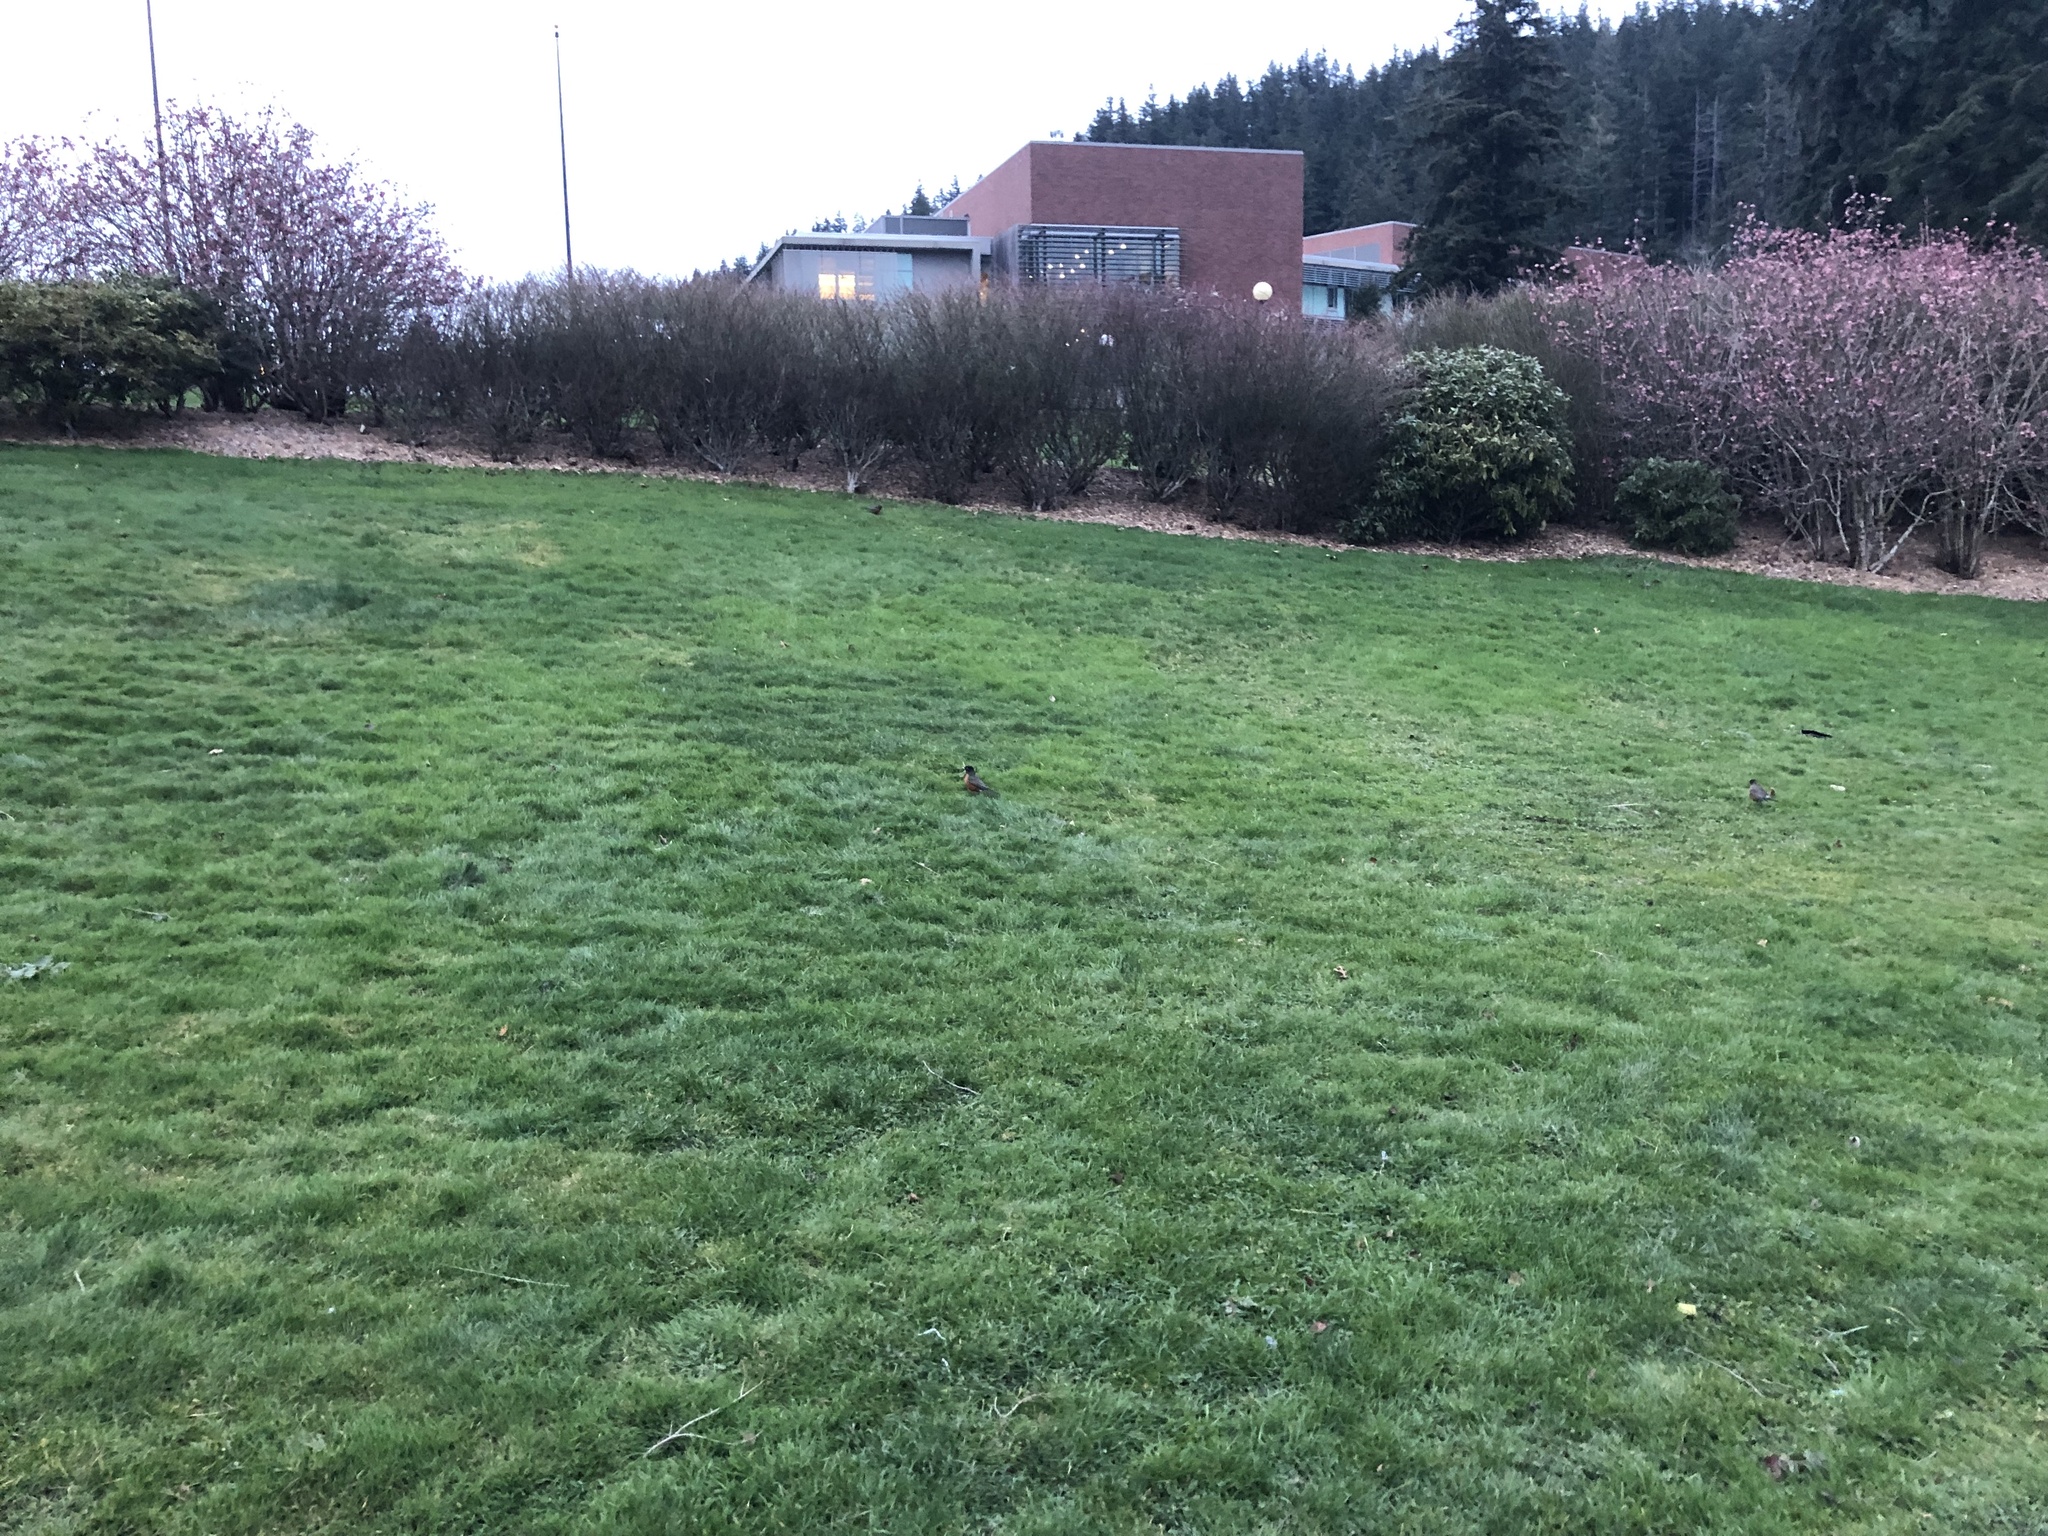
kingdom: Animalia
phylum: Chordata
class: Aves
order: Passeriformes
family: Turdidae
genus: Turdus
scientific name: Turdus migratorius
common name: American robin
